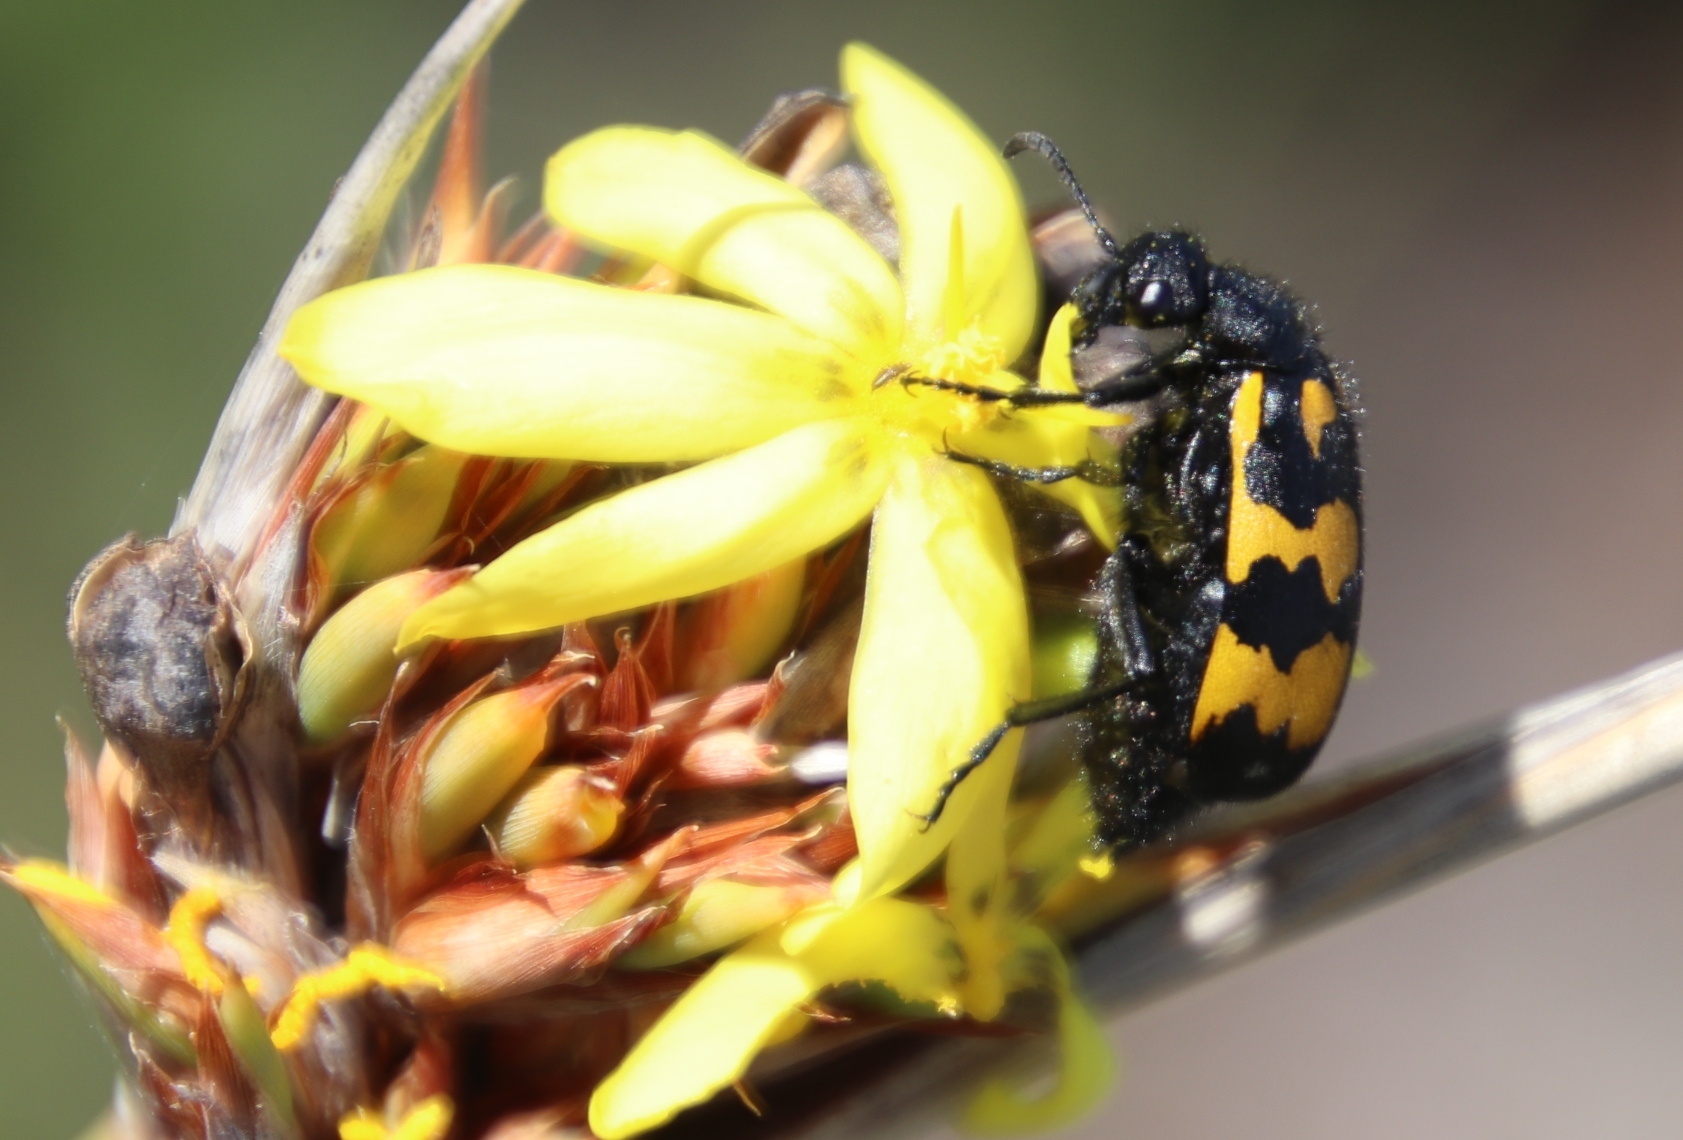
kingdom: Animalia
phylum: Arthropoda
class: Insecta
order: Coleoptera
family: Meloidae
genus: Hycleus
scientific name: Hycleus africanus
